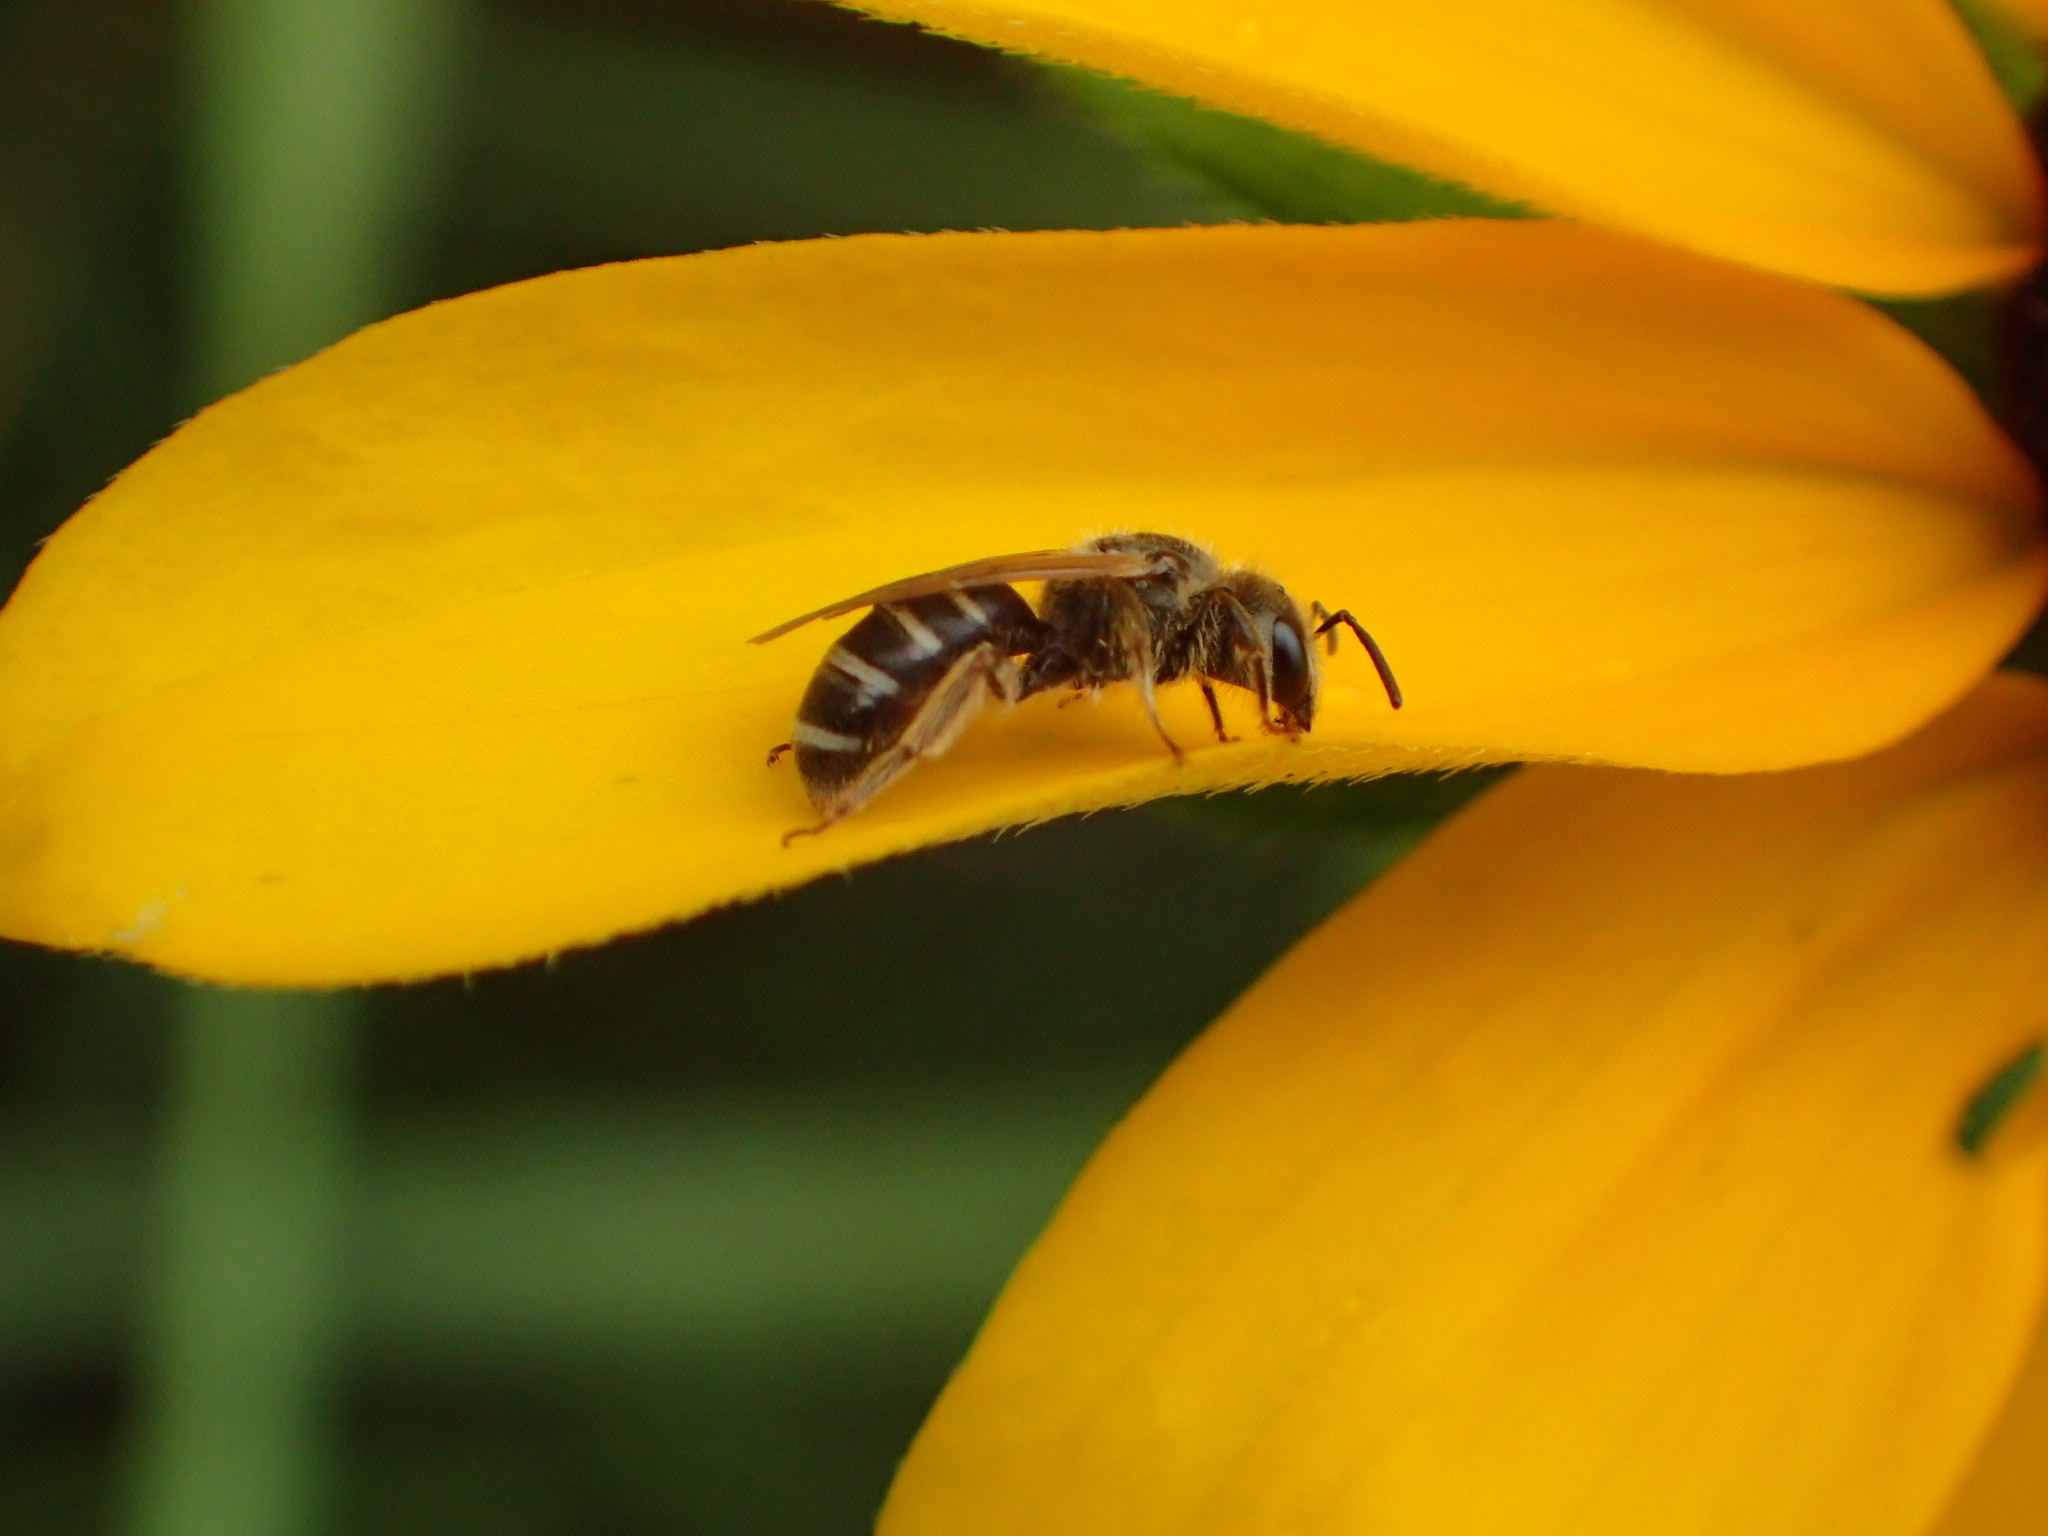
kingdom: Animalia
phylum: Arthropoda
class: Insecta
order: Hymenoptera
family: Halictidae
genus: Halictus
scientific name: Halictus ligatus
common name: Ligated furrow bee
